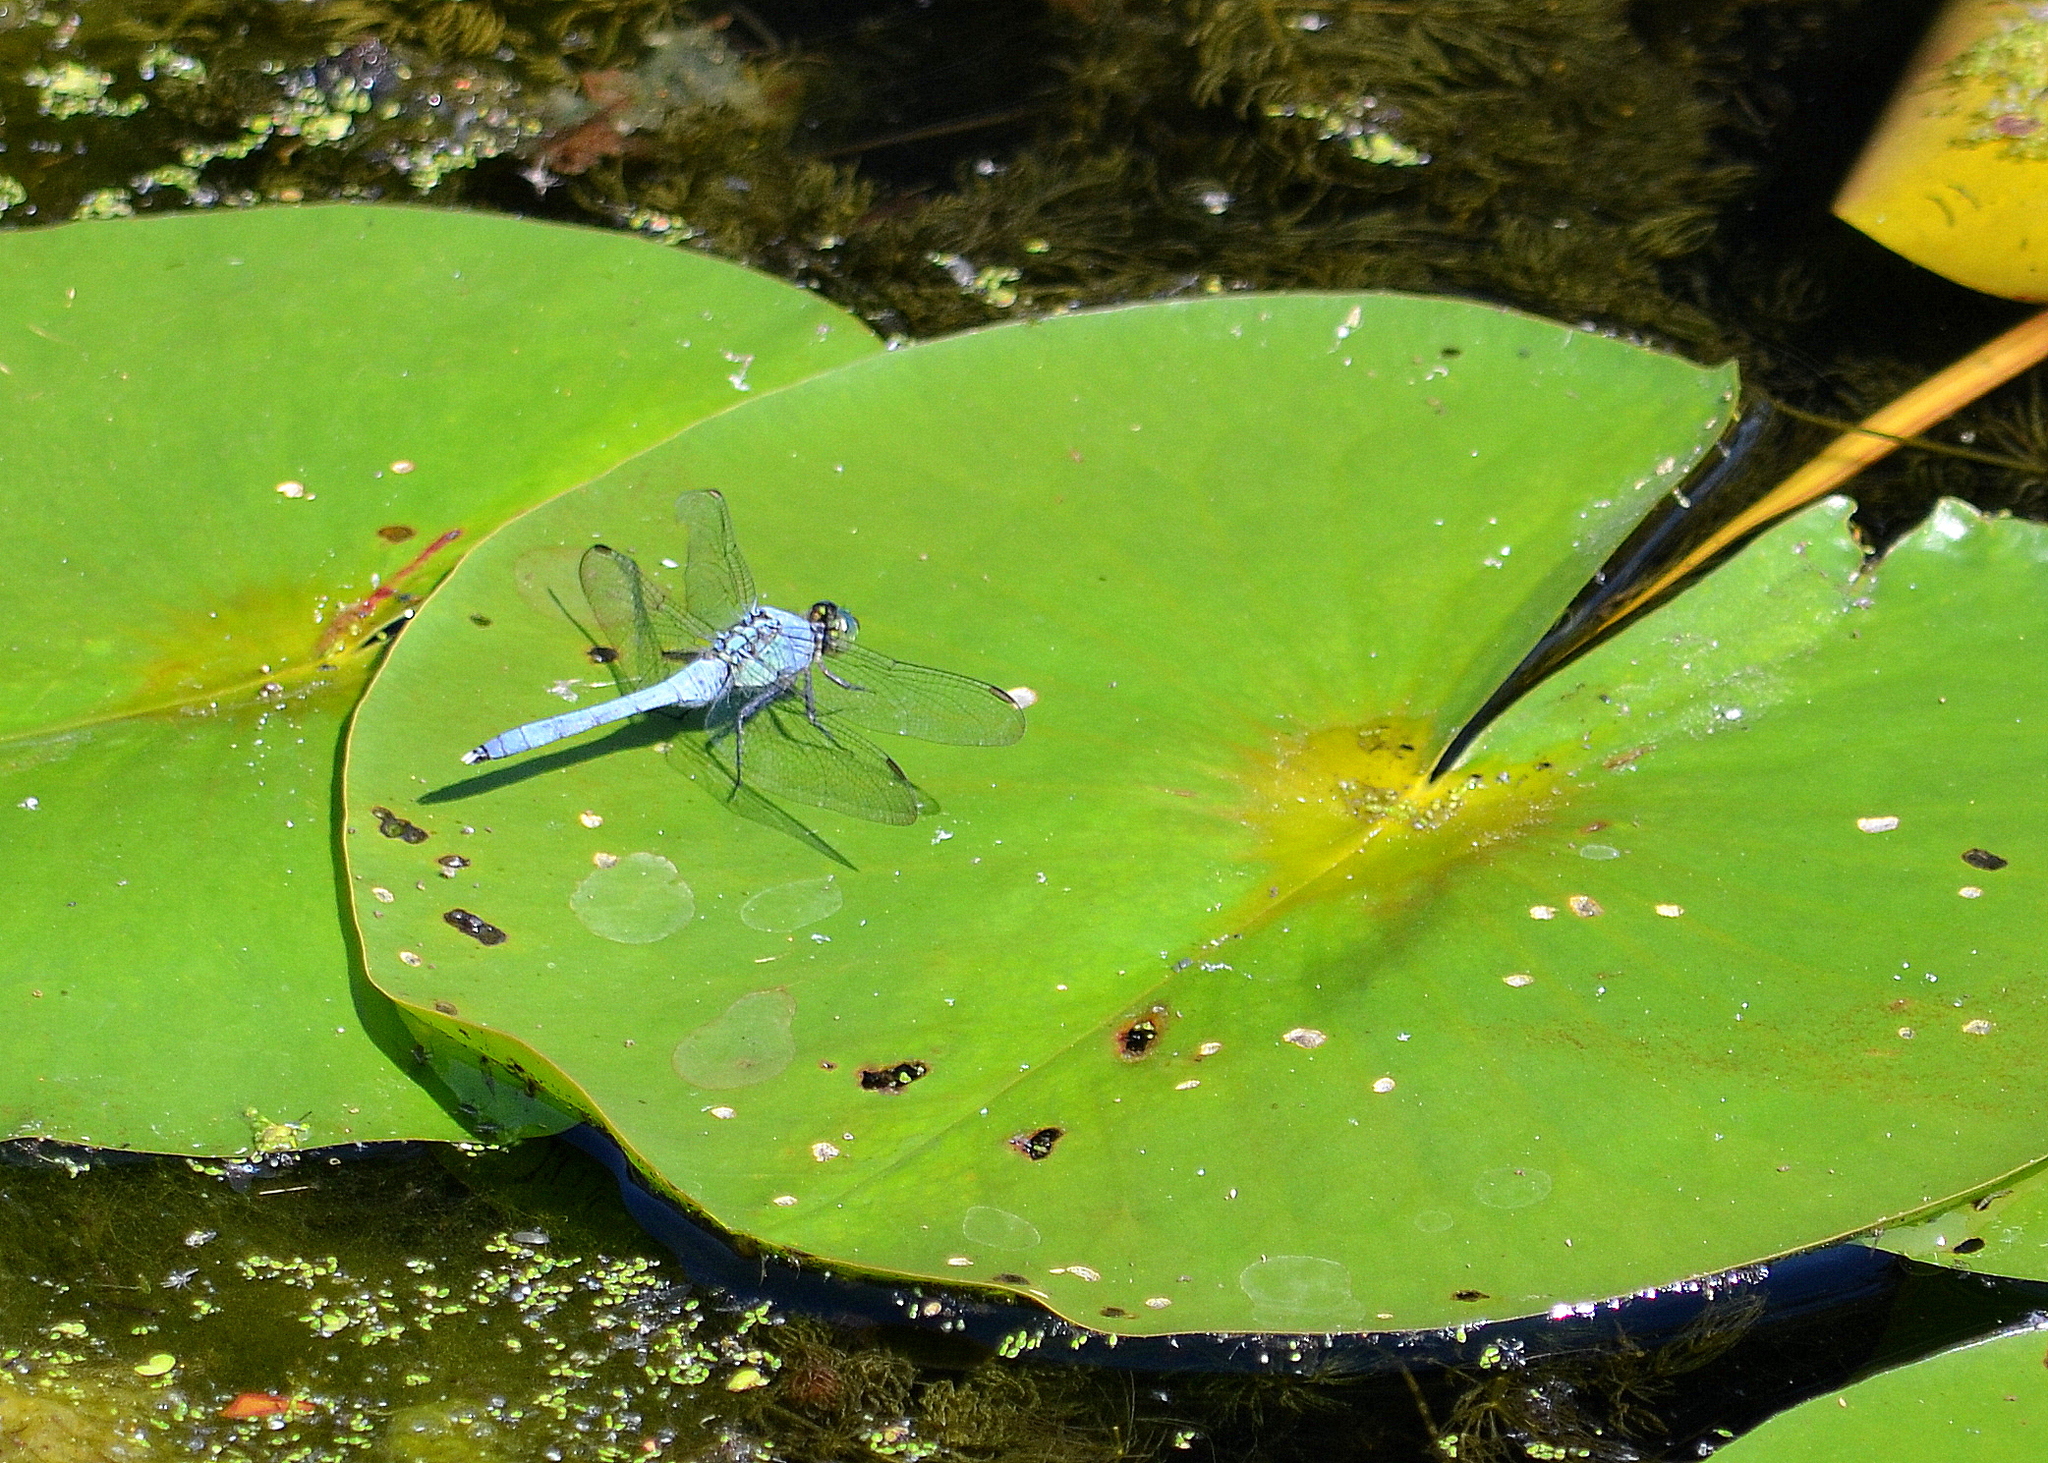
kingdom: Animalia
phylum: Arthropoda
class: Insecta
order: Odonata
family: Libellulidae
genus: Erythemis
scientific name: Erythemis simplicicollis
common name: Eastern pondhawk
